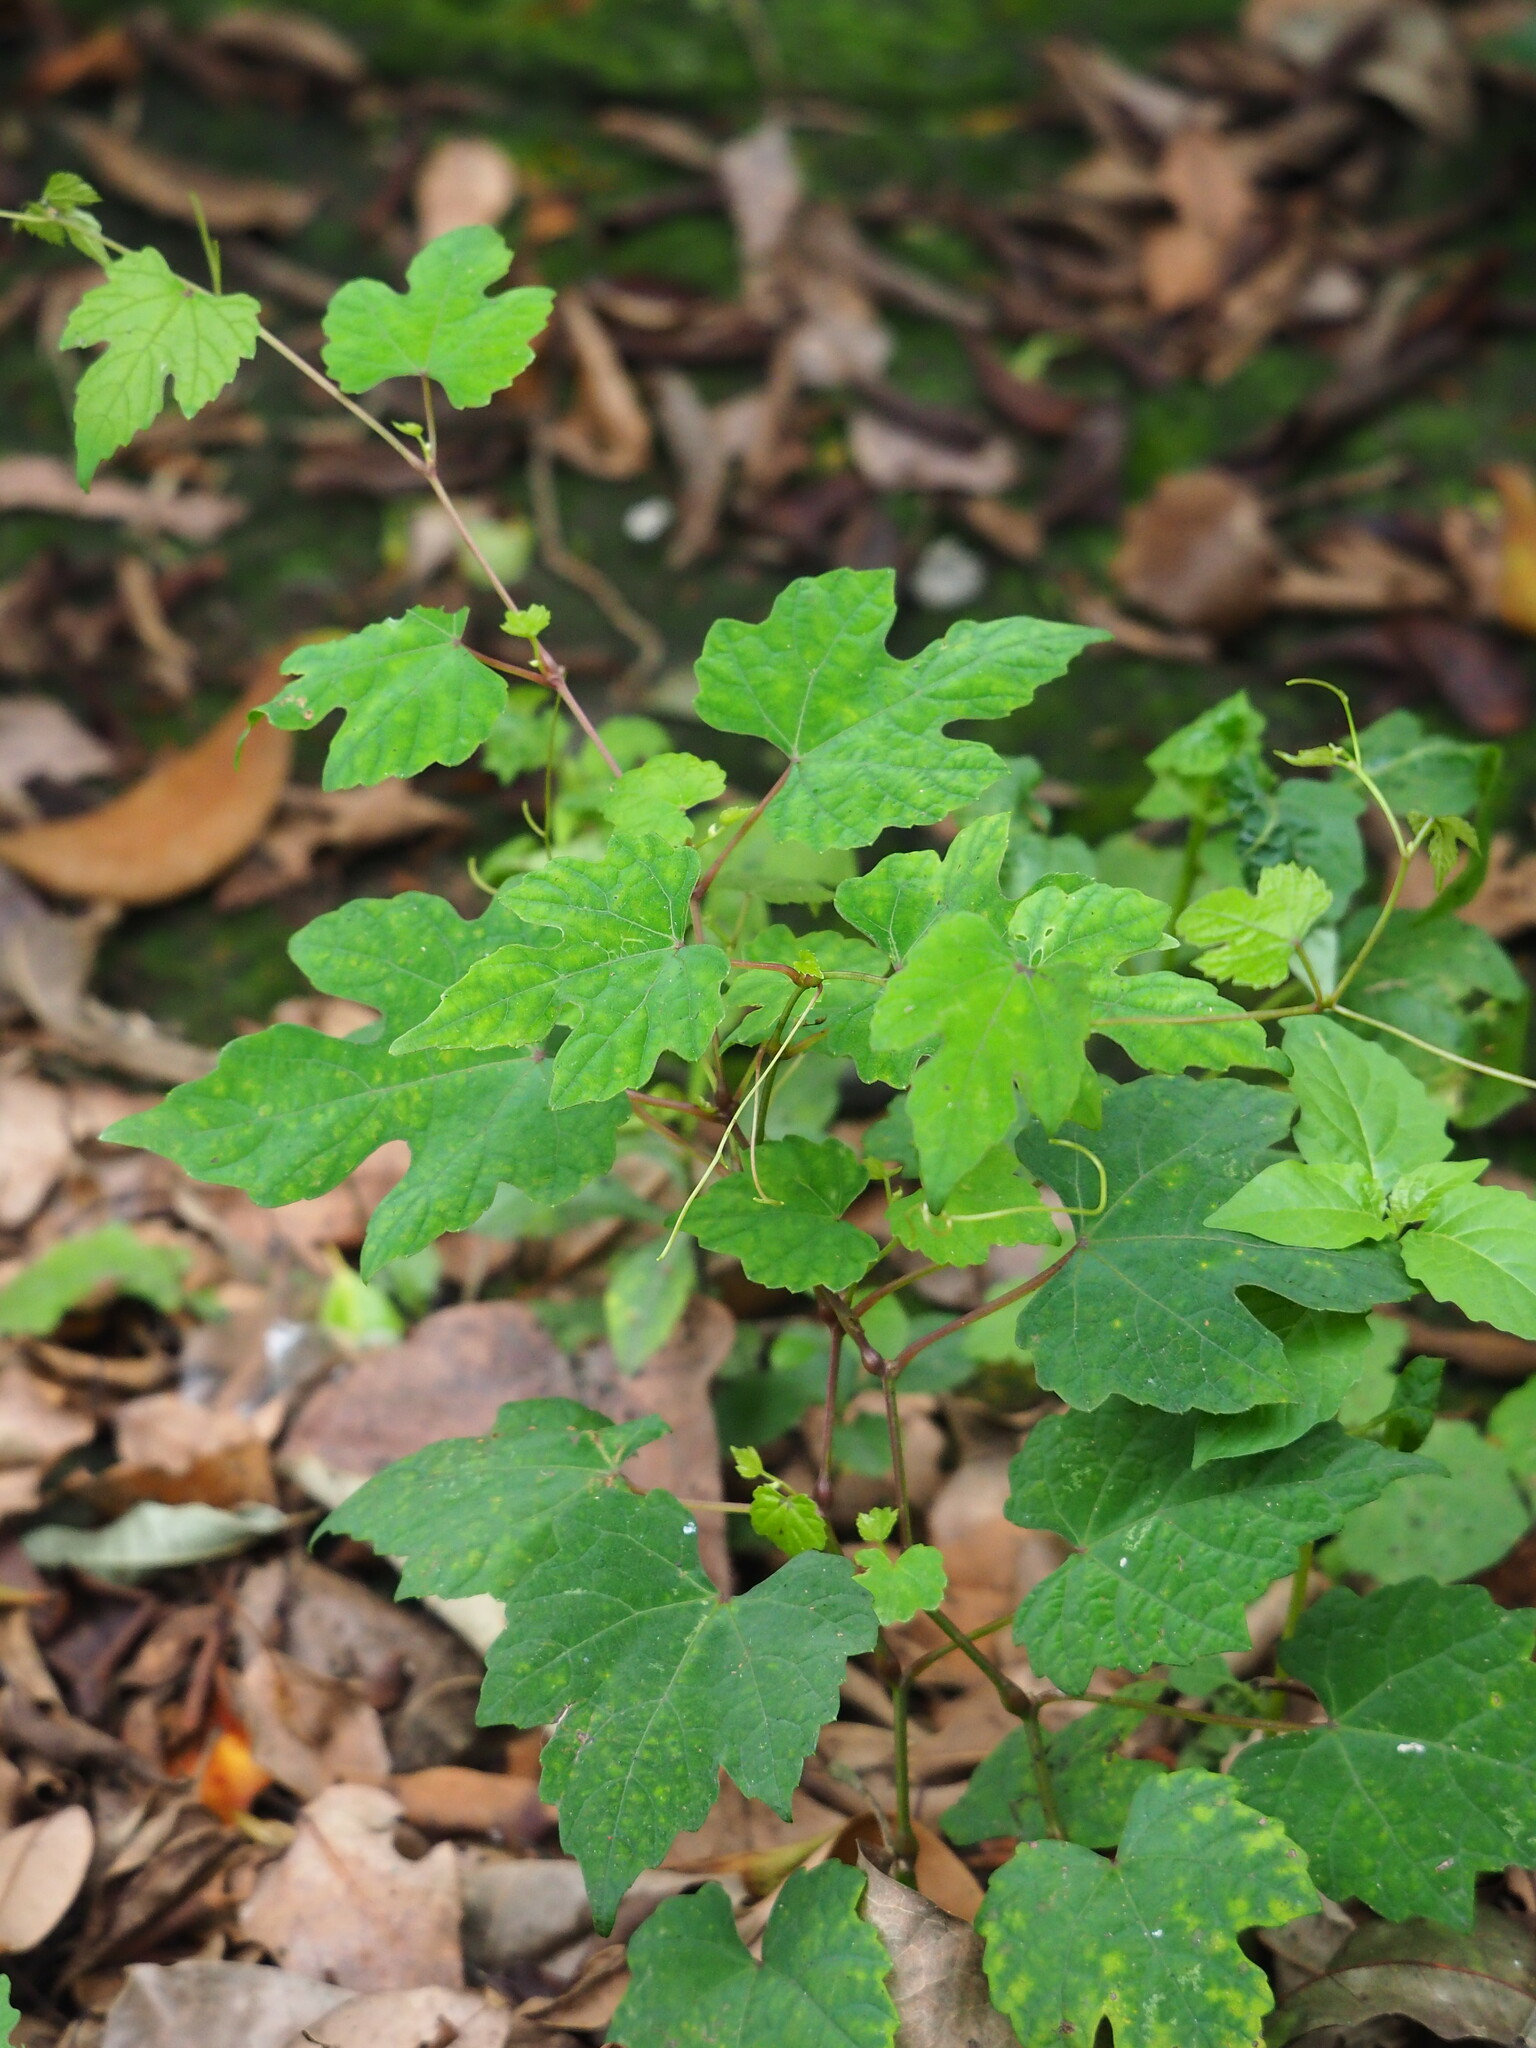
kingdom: Plantae
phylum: Tracheophyta
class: Magnoliopsida
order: Vitales
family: Vitaceae
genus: Ampelopsis
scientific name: Ampelopsis glandulosa
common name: Amur peppervine
